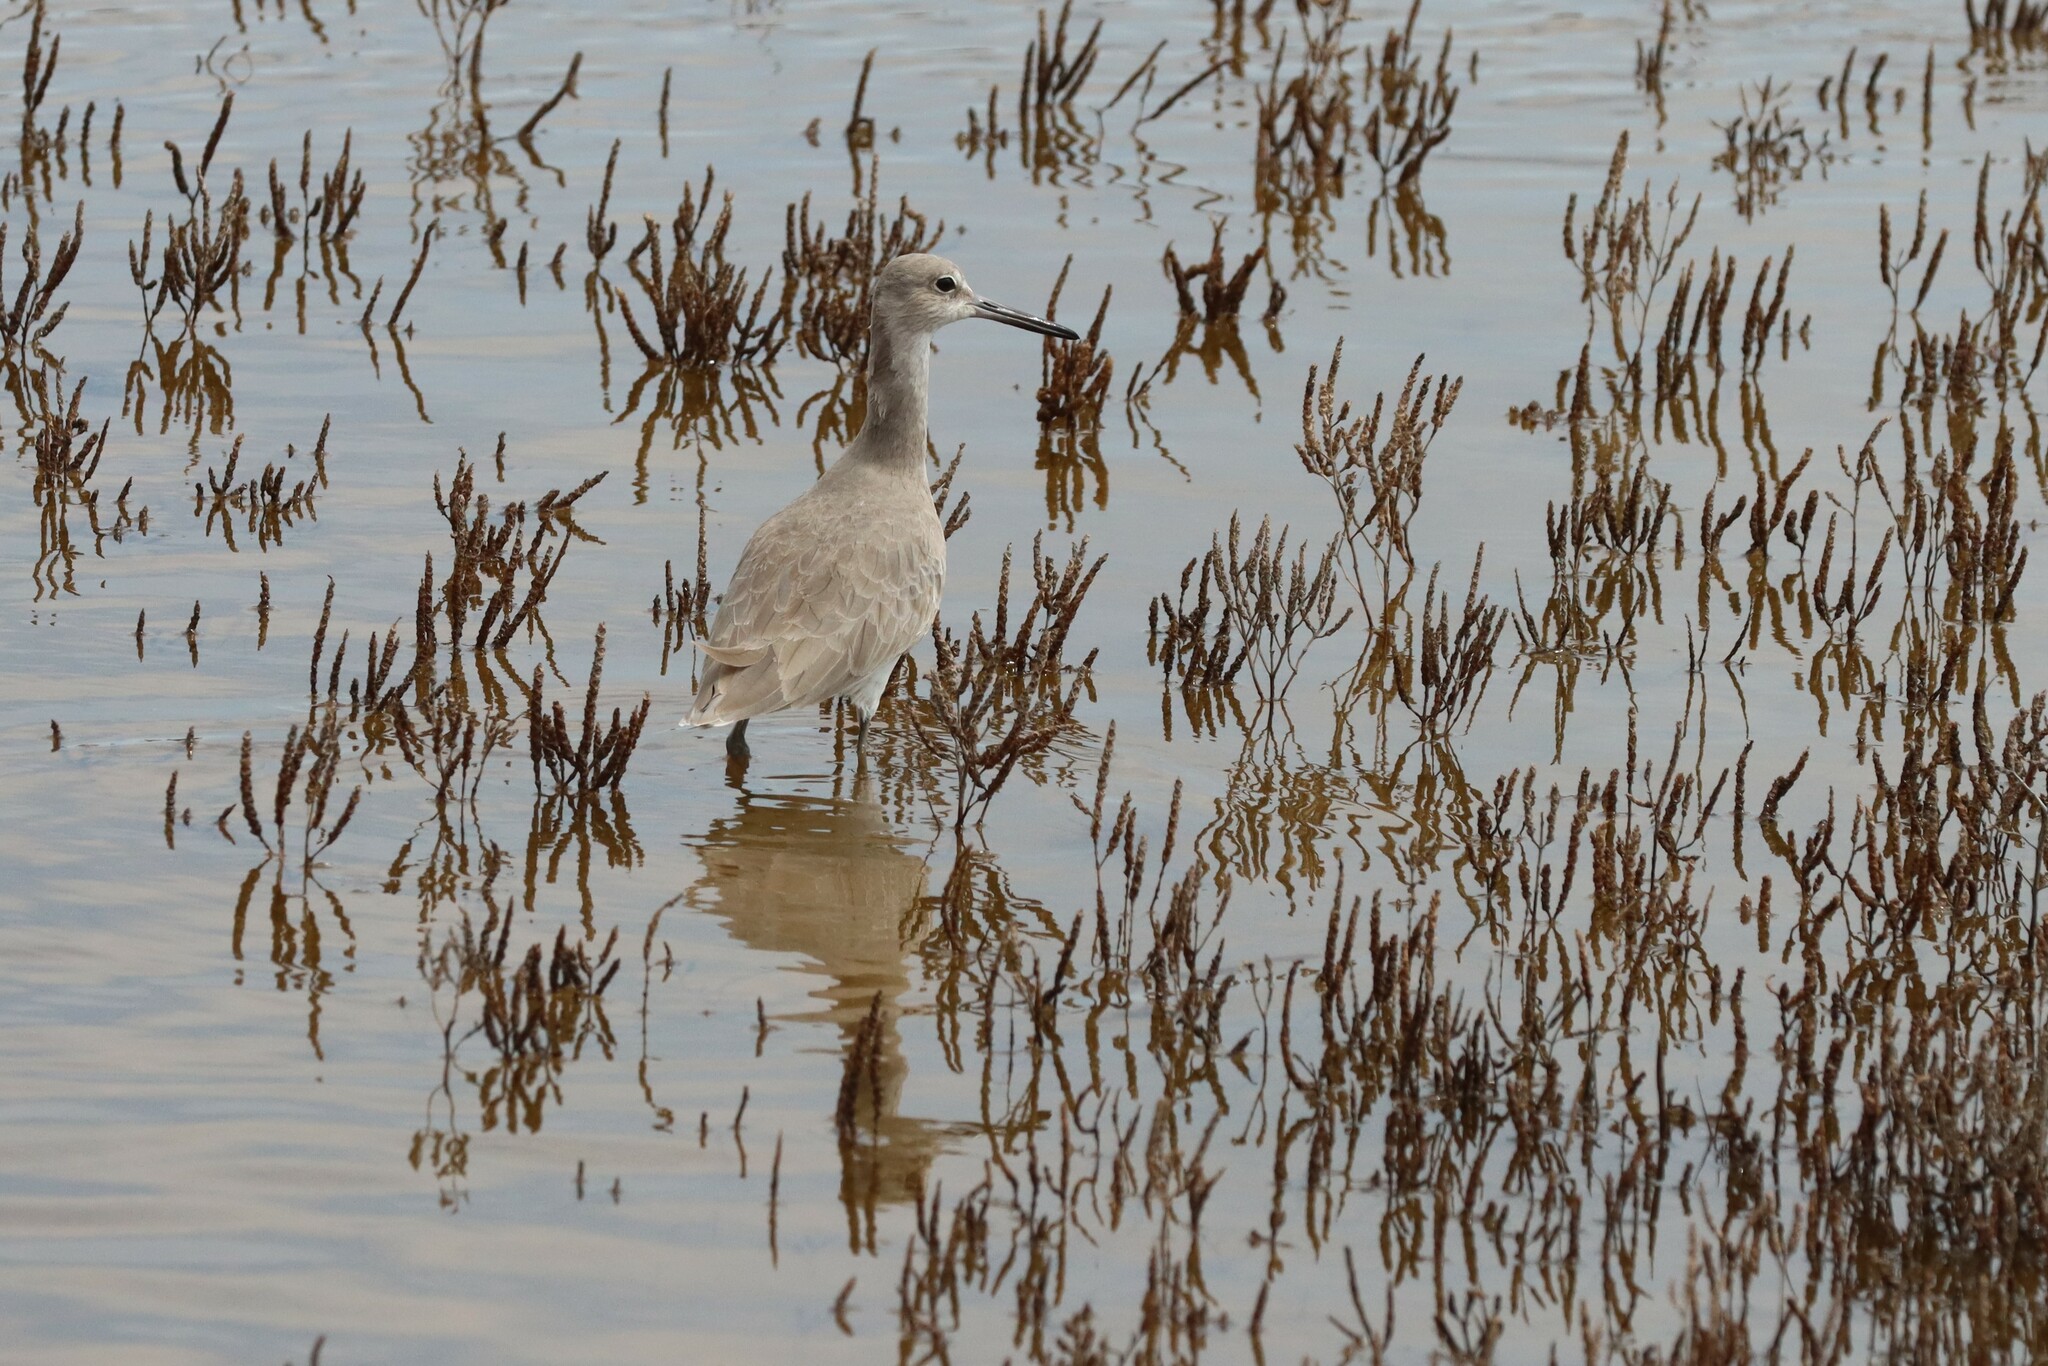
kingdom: Animalia
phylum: Chordata
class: Aves
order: Charadriiformes
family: Scolopacidae
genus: Tringa
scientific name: Tringa semipalmata
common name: Willet
